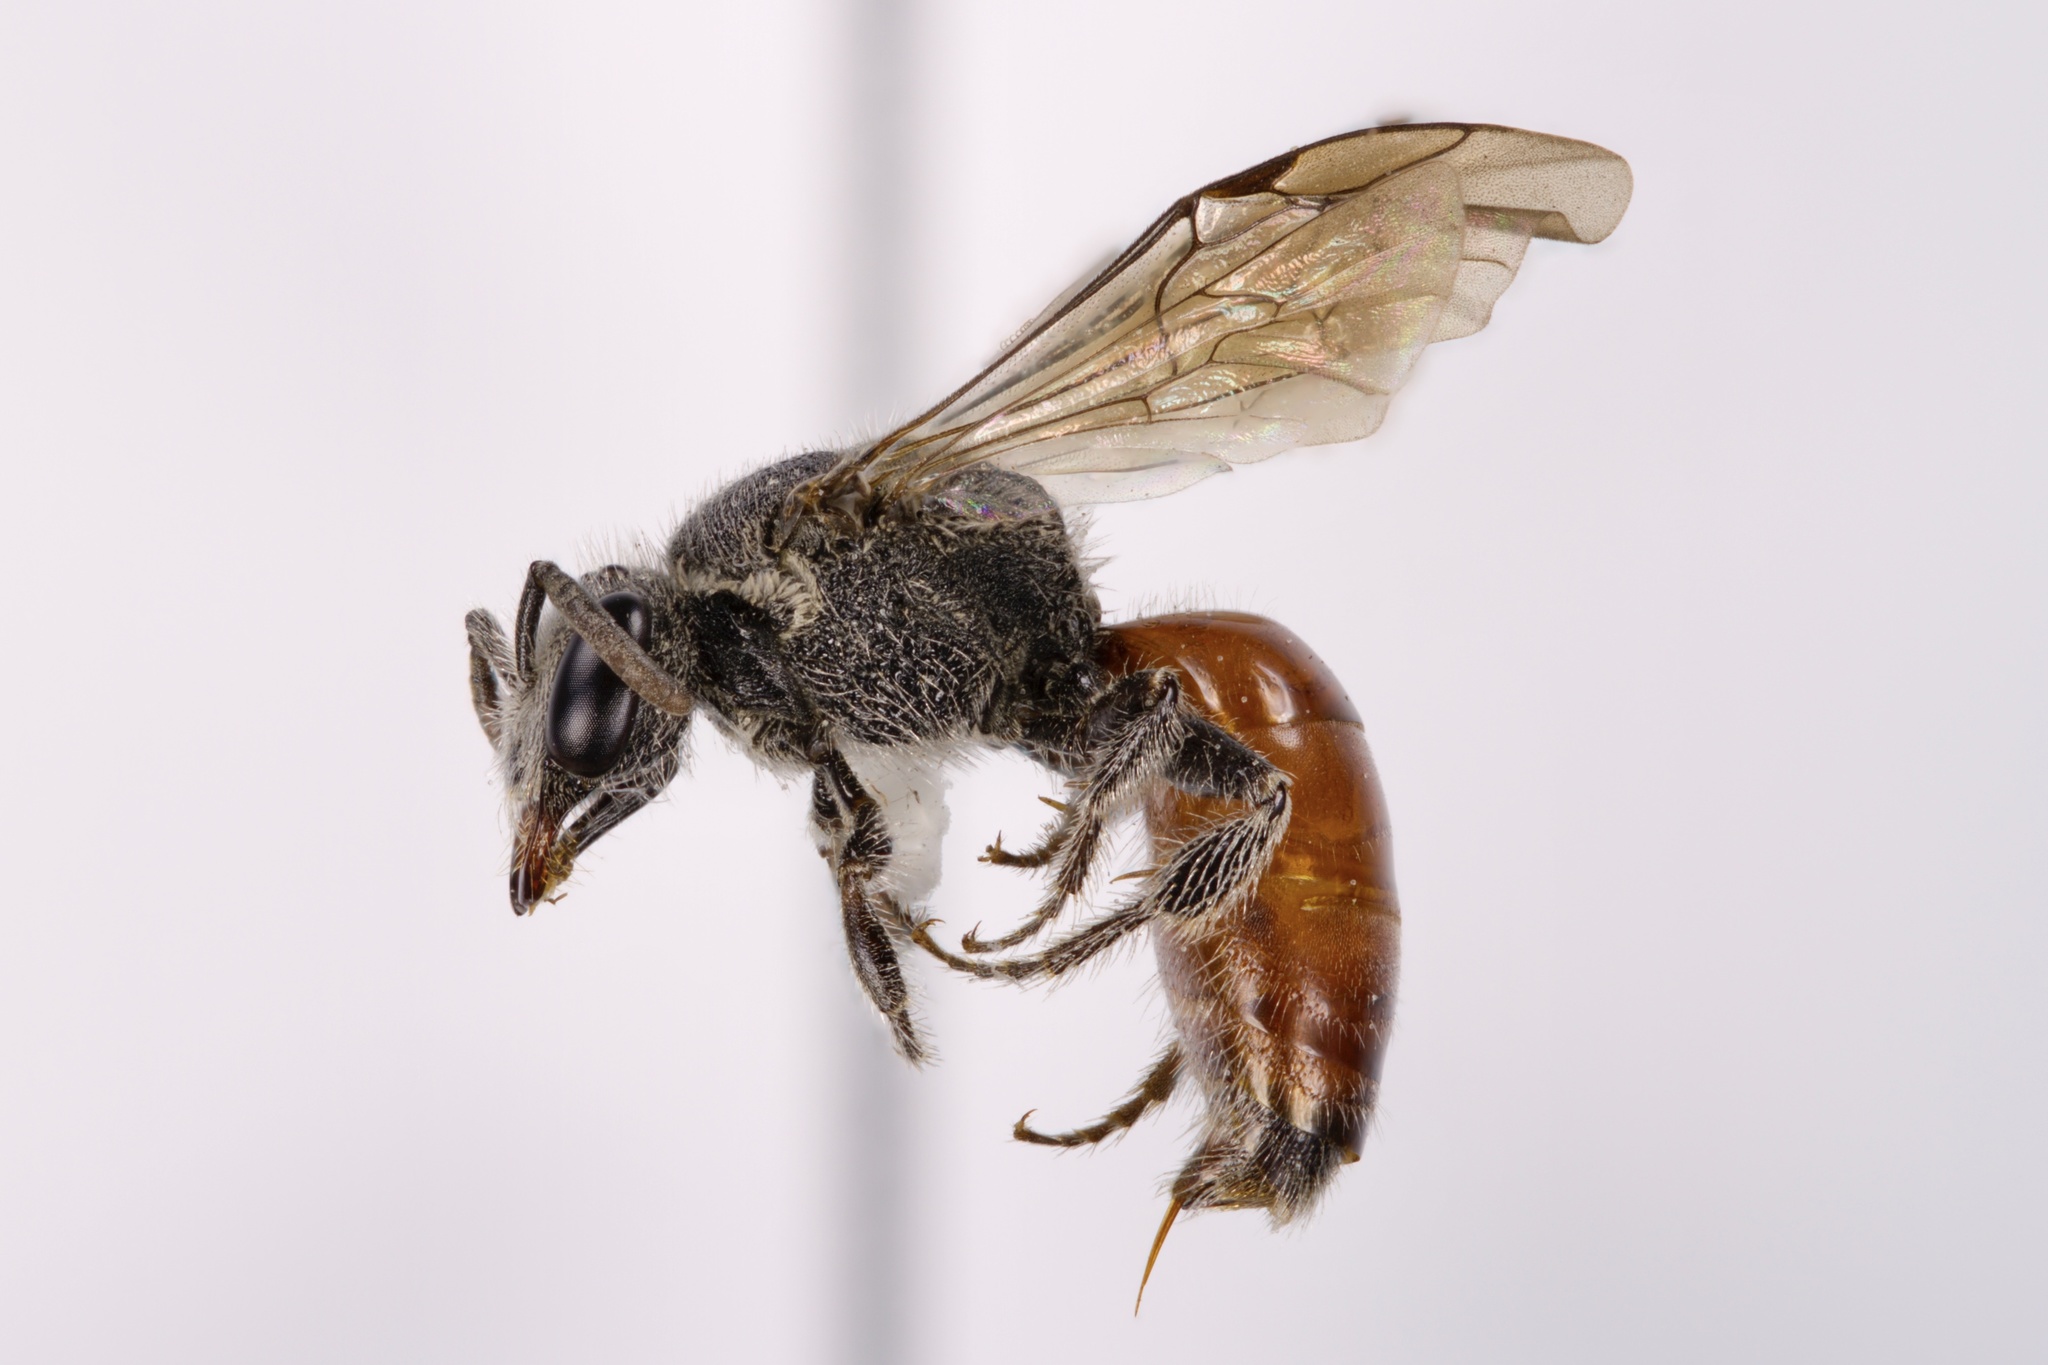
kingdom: Animalia
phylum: Arthropoda
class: Insecta
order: Hymenoptera
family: Halictidae
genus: Sphecodes
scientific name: Sphecodes confertus
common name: Bi-lobed cuckoo sweat bee
